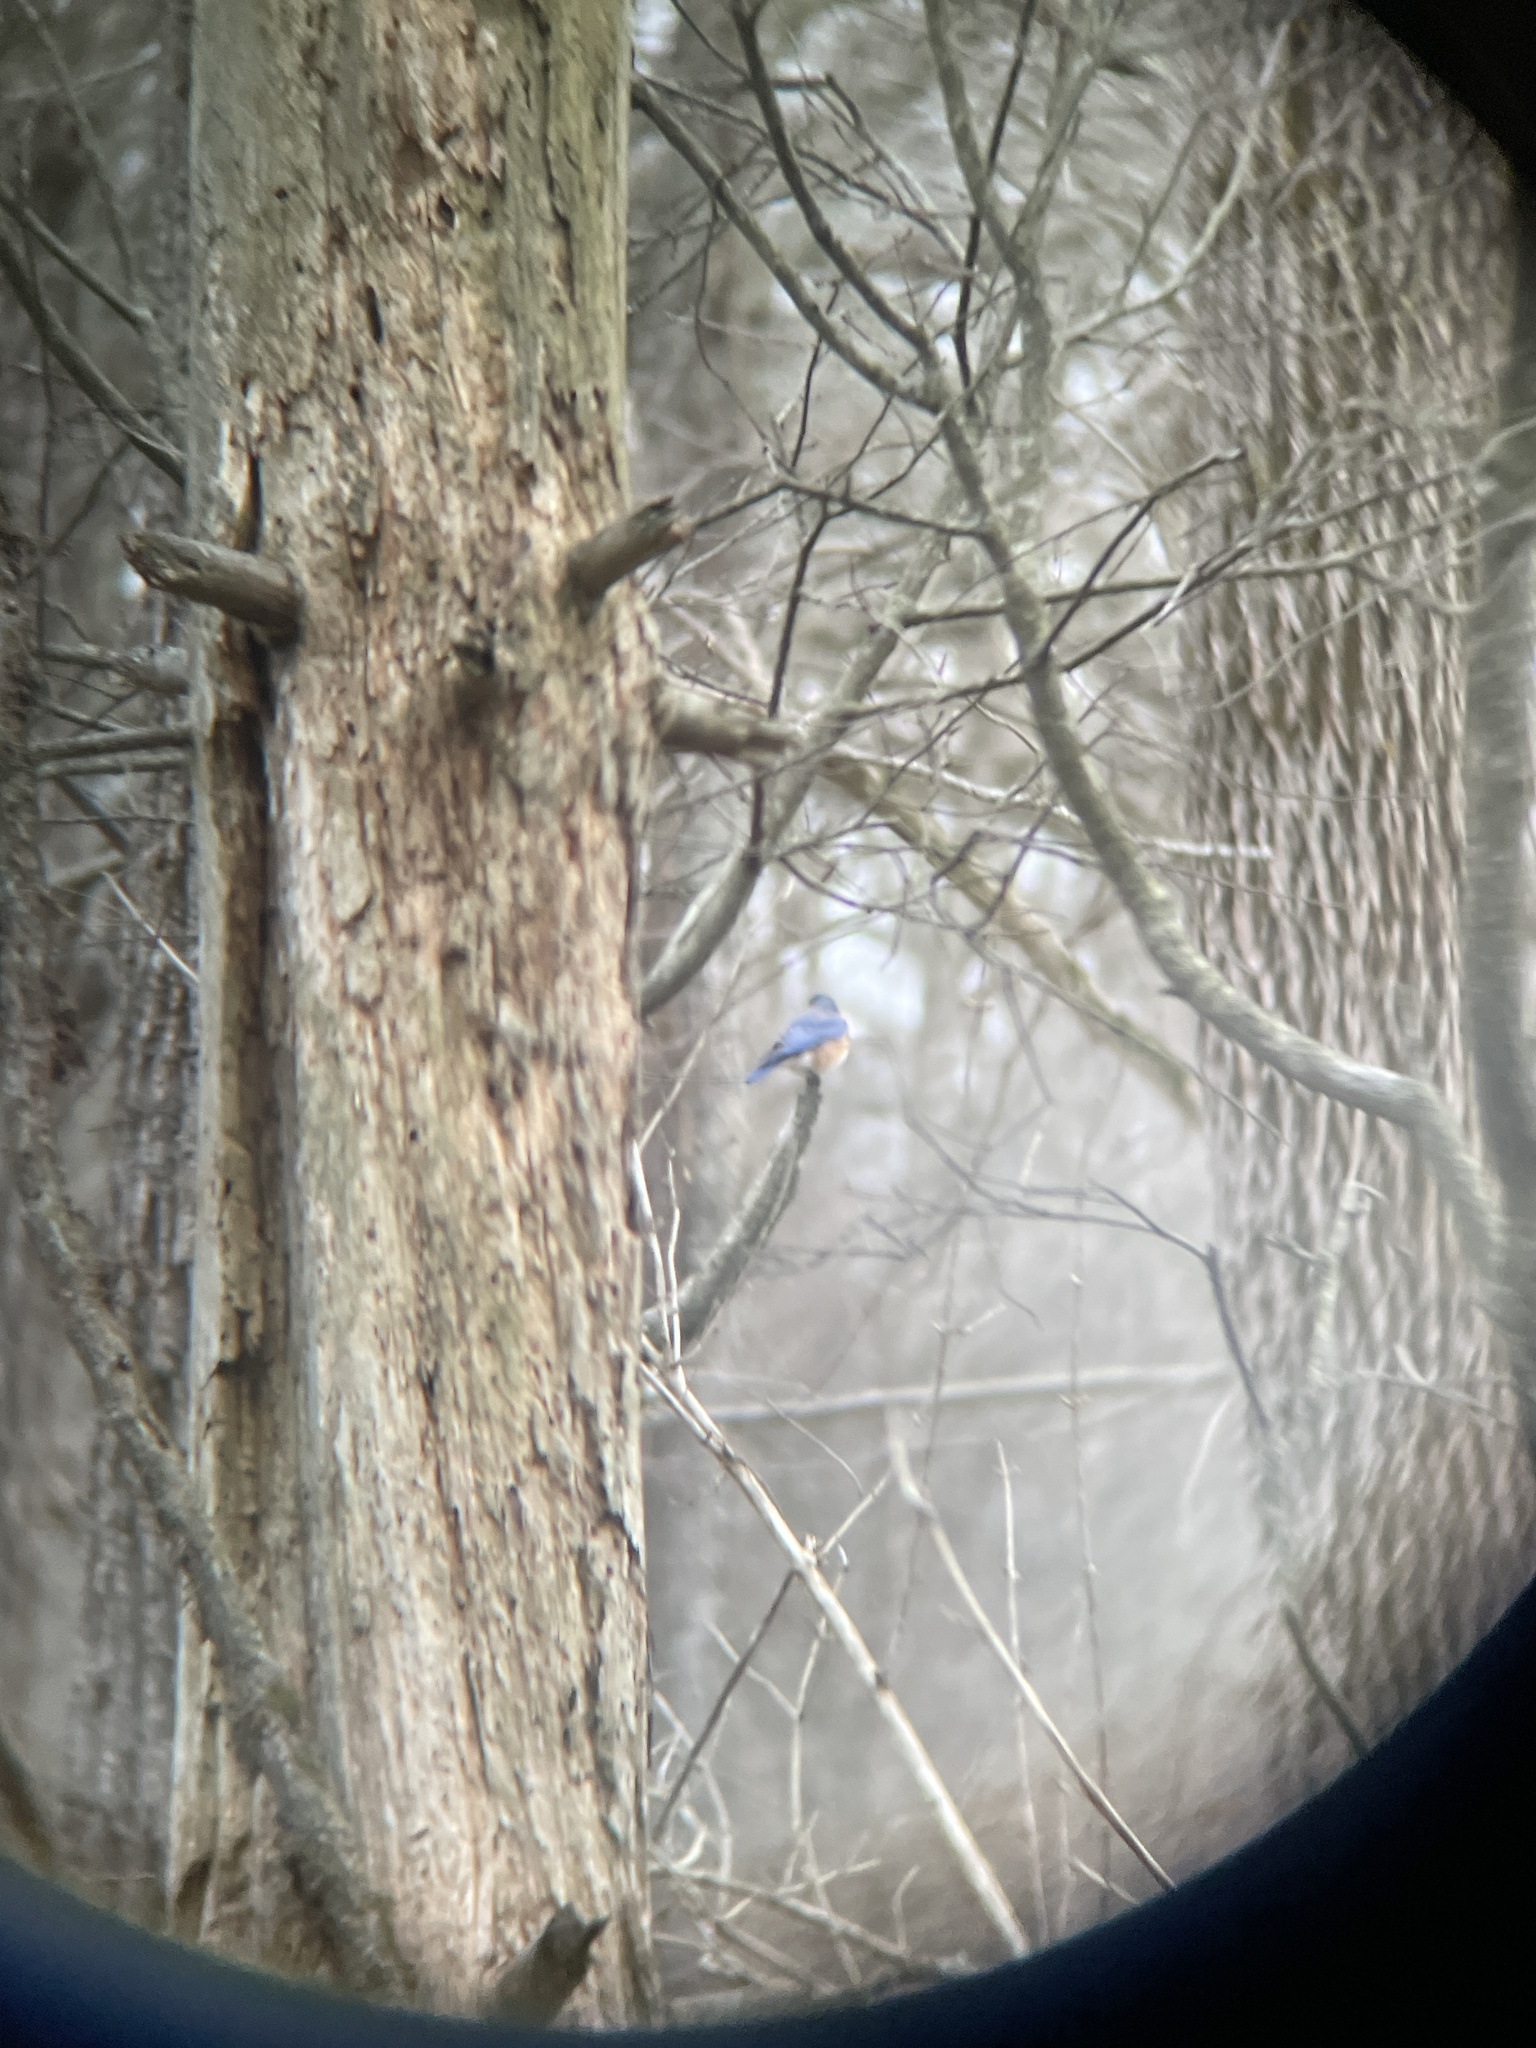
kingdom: Animalia
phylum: Chordata
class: Aves
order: Passeriformes
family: Turdidae
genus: Sialia
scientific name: Sialia sialis
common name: Eastern bluebird
